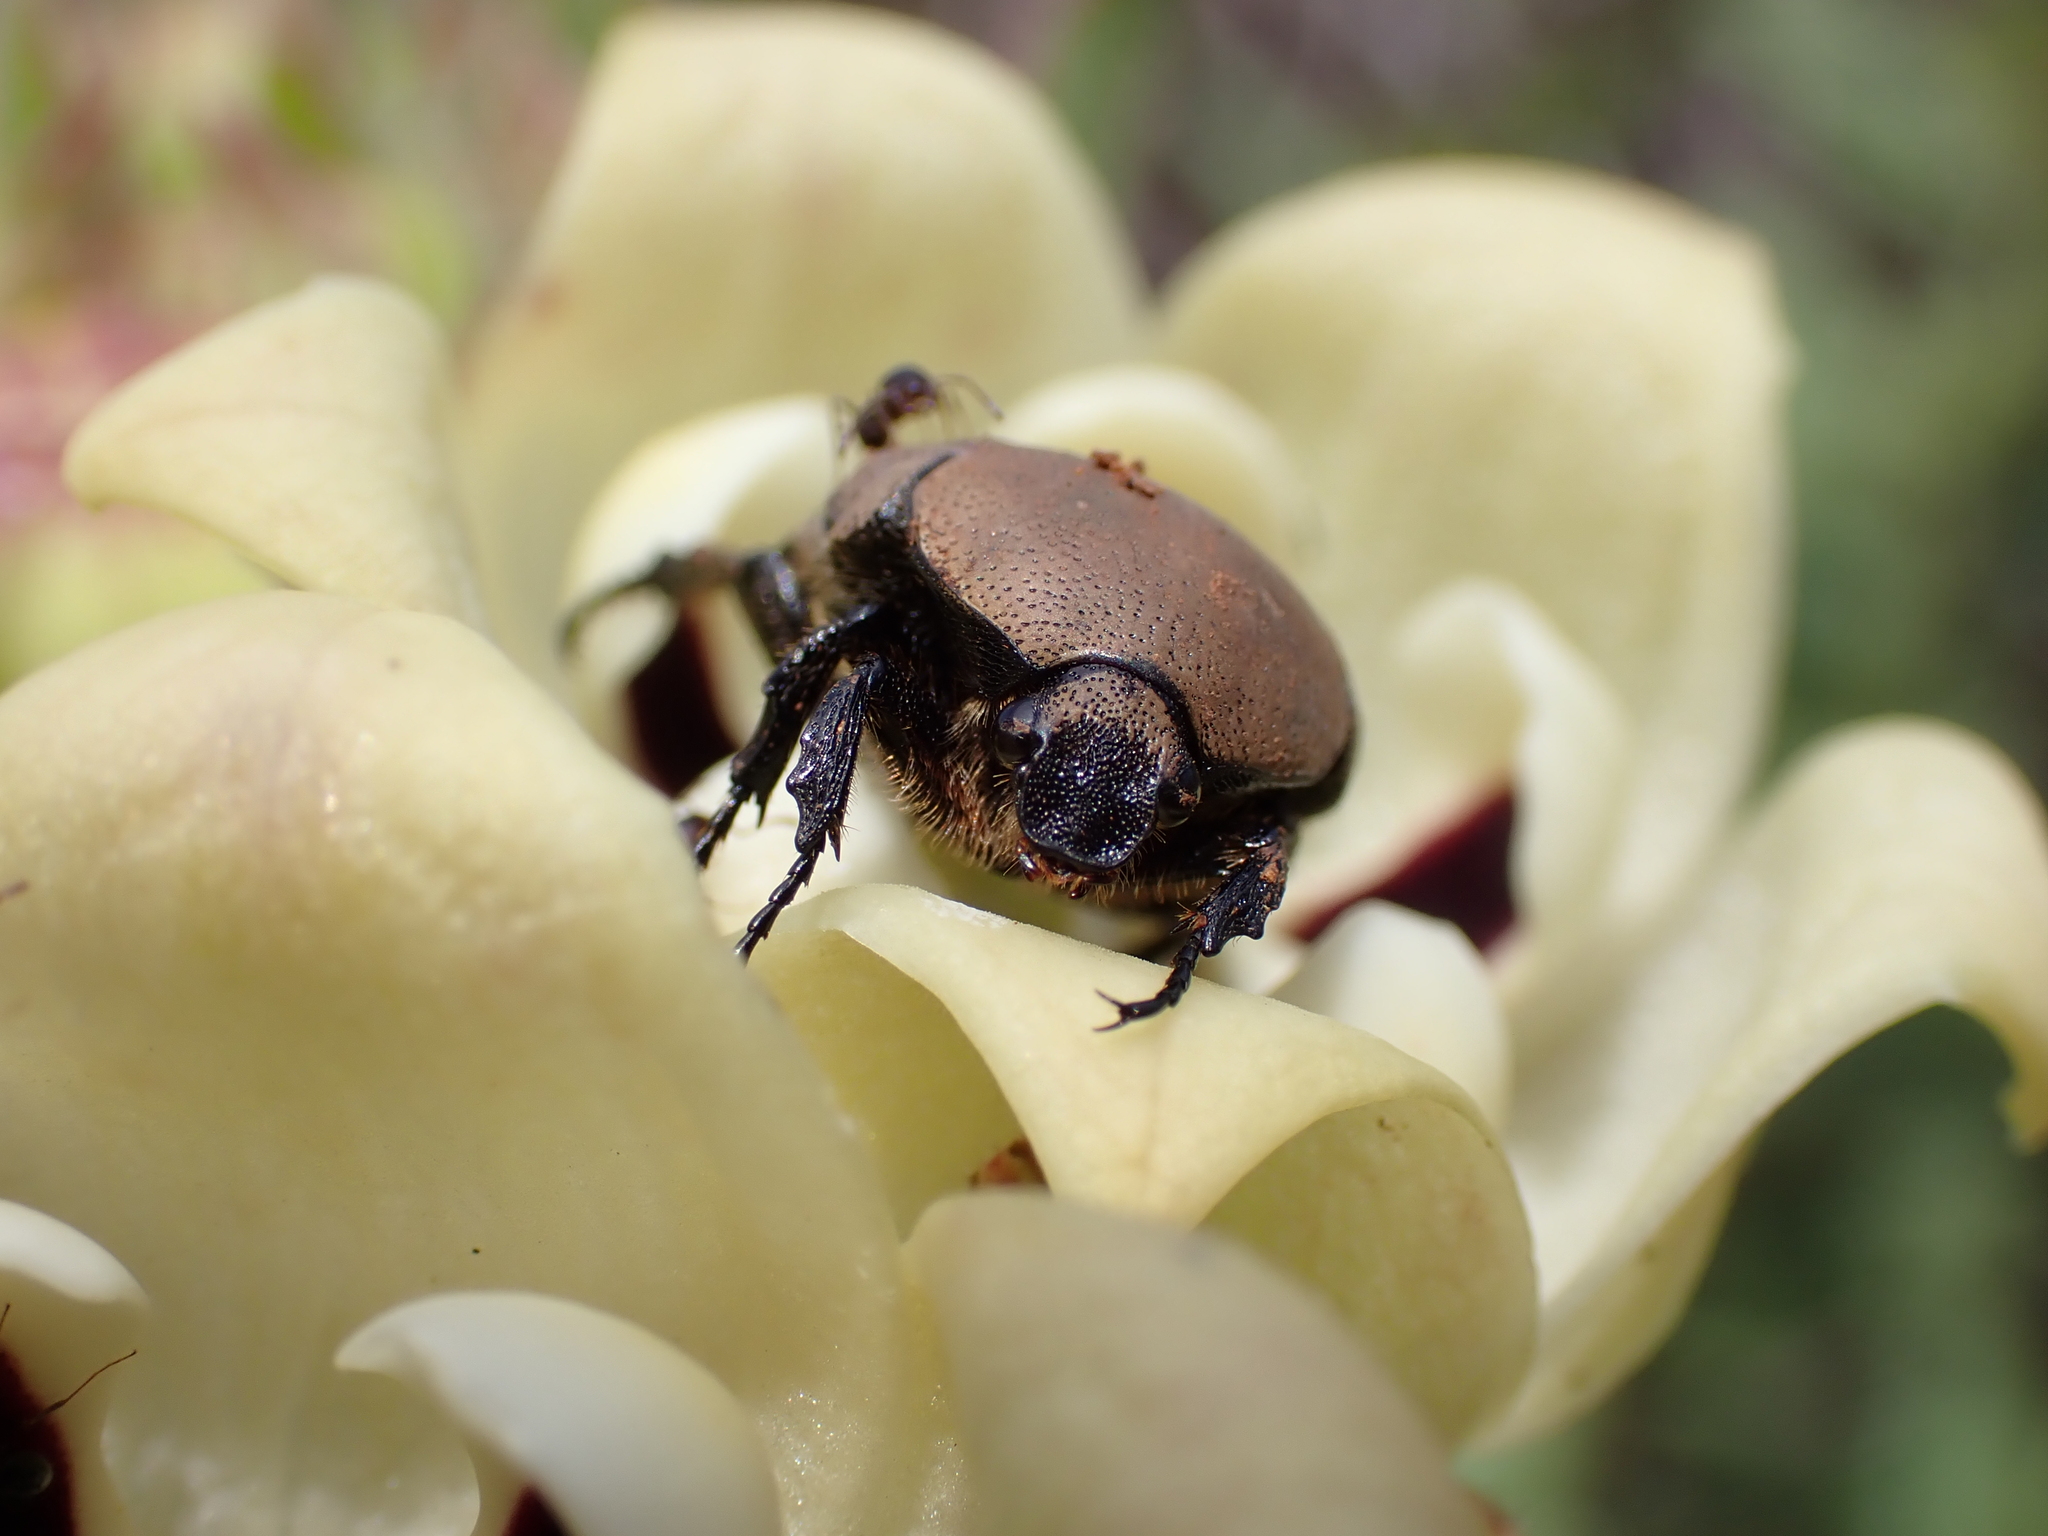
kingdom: Animalia
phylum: Arthropoda
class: Insecta
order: Coleoptera
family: Scarabaeidae
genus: Tephraea
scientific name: Tephraea dichroa
